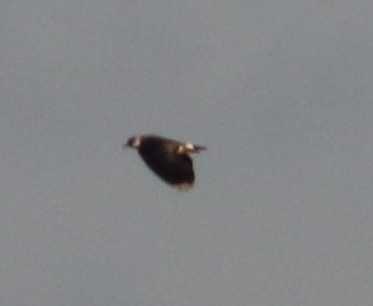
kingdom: Animalia
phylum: Chordata
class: Aves
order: Charadriiformes
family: Charadriidae
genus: Vanellus
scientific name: Vanellus vanellus
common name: Northern lapwing
